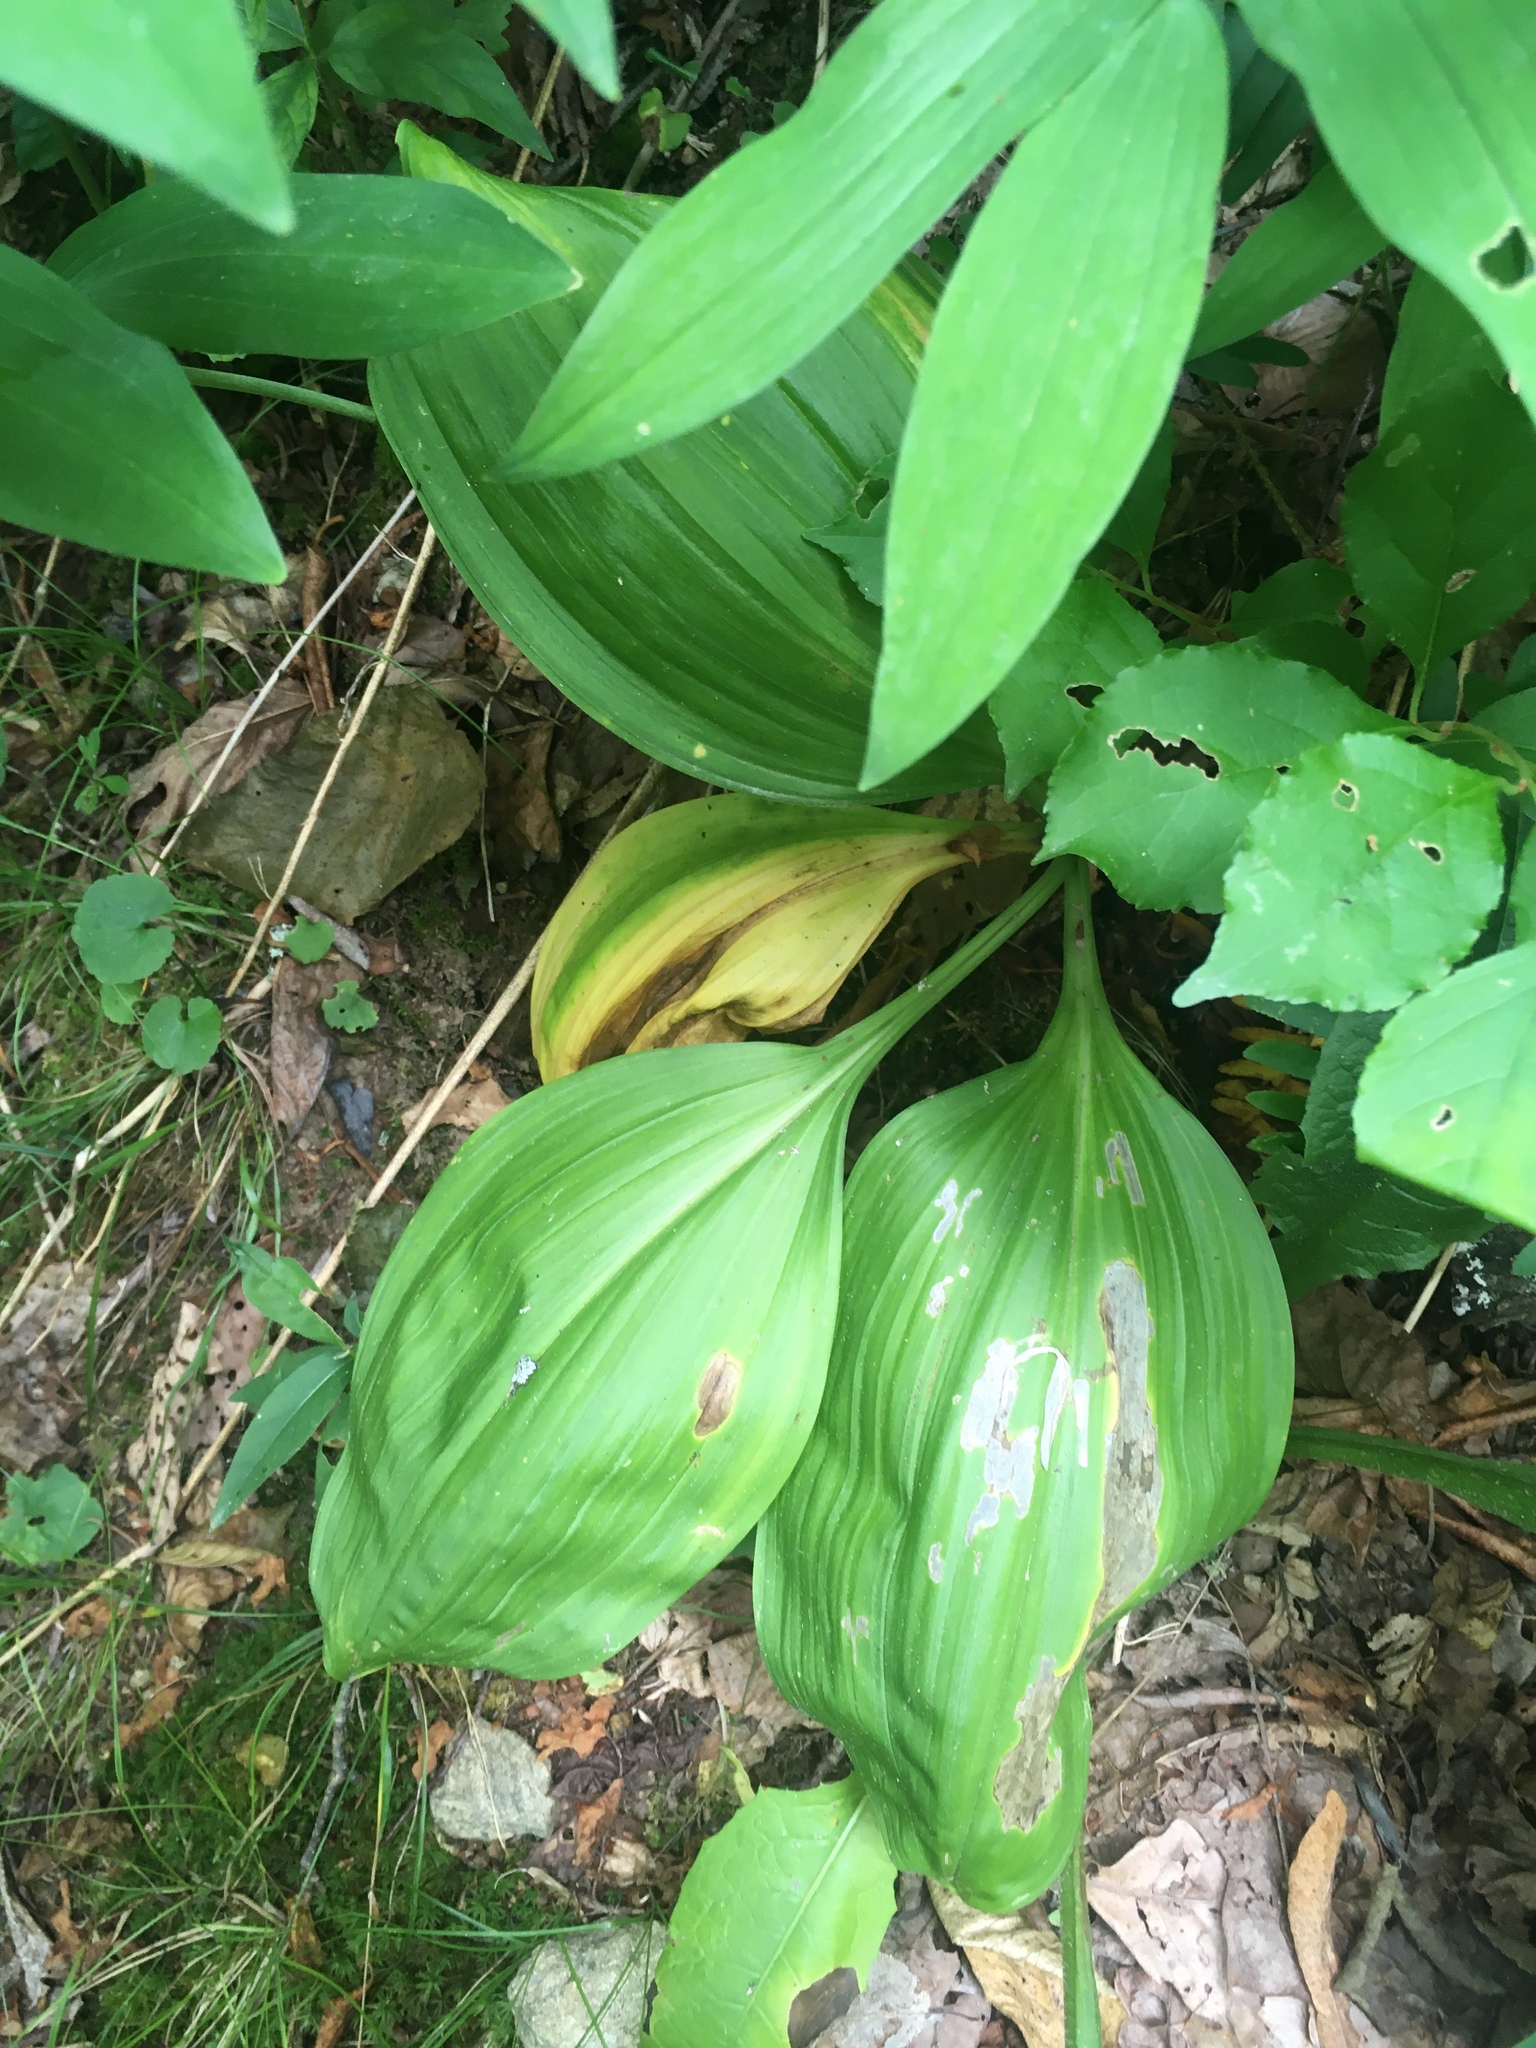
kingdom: Plantae
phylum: Tracheophyta
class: Liliopsida
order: Liliales
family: Melanthiaceae
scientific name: Melanthiaceae
